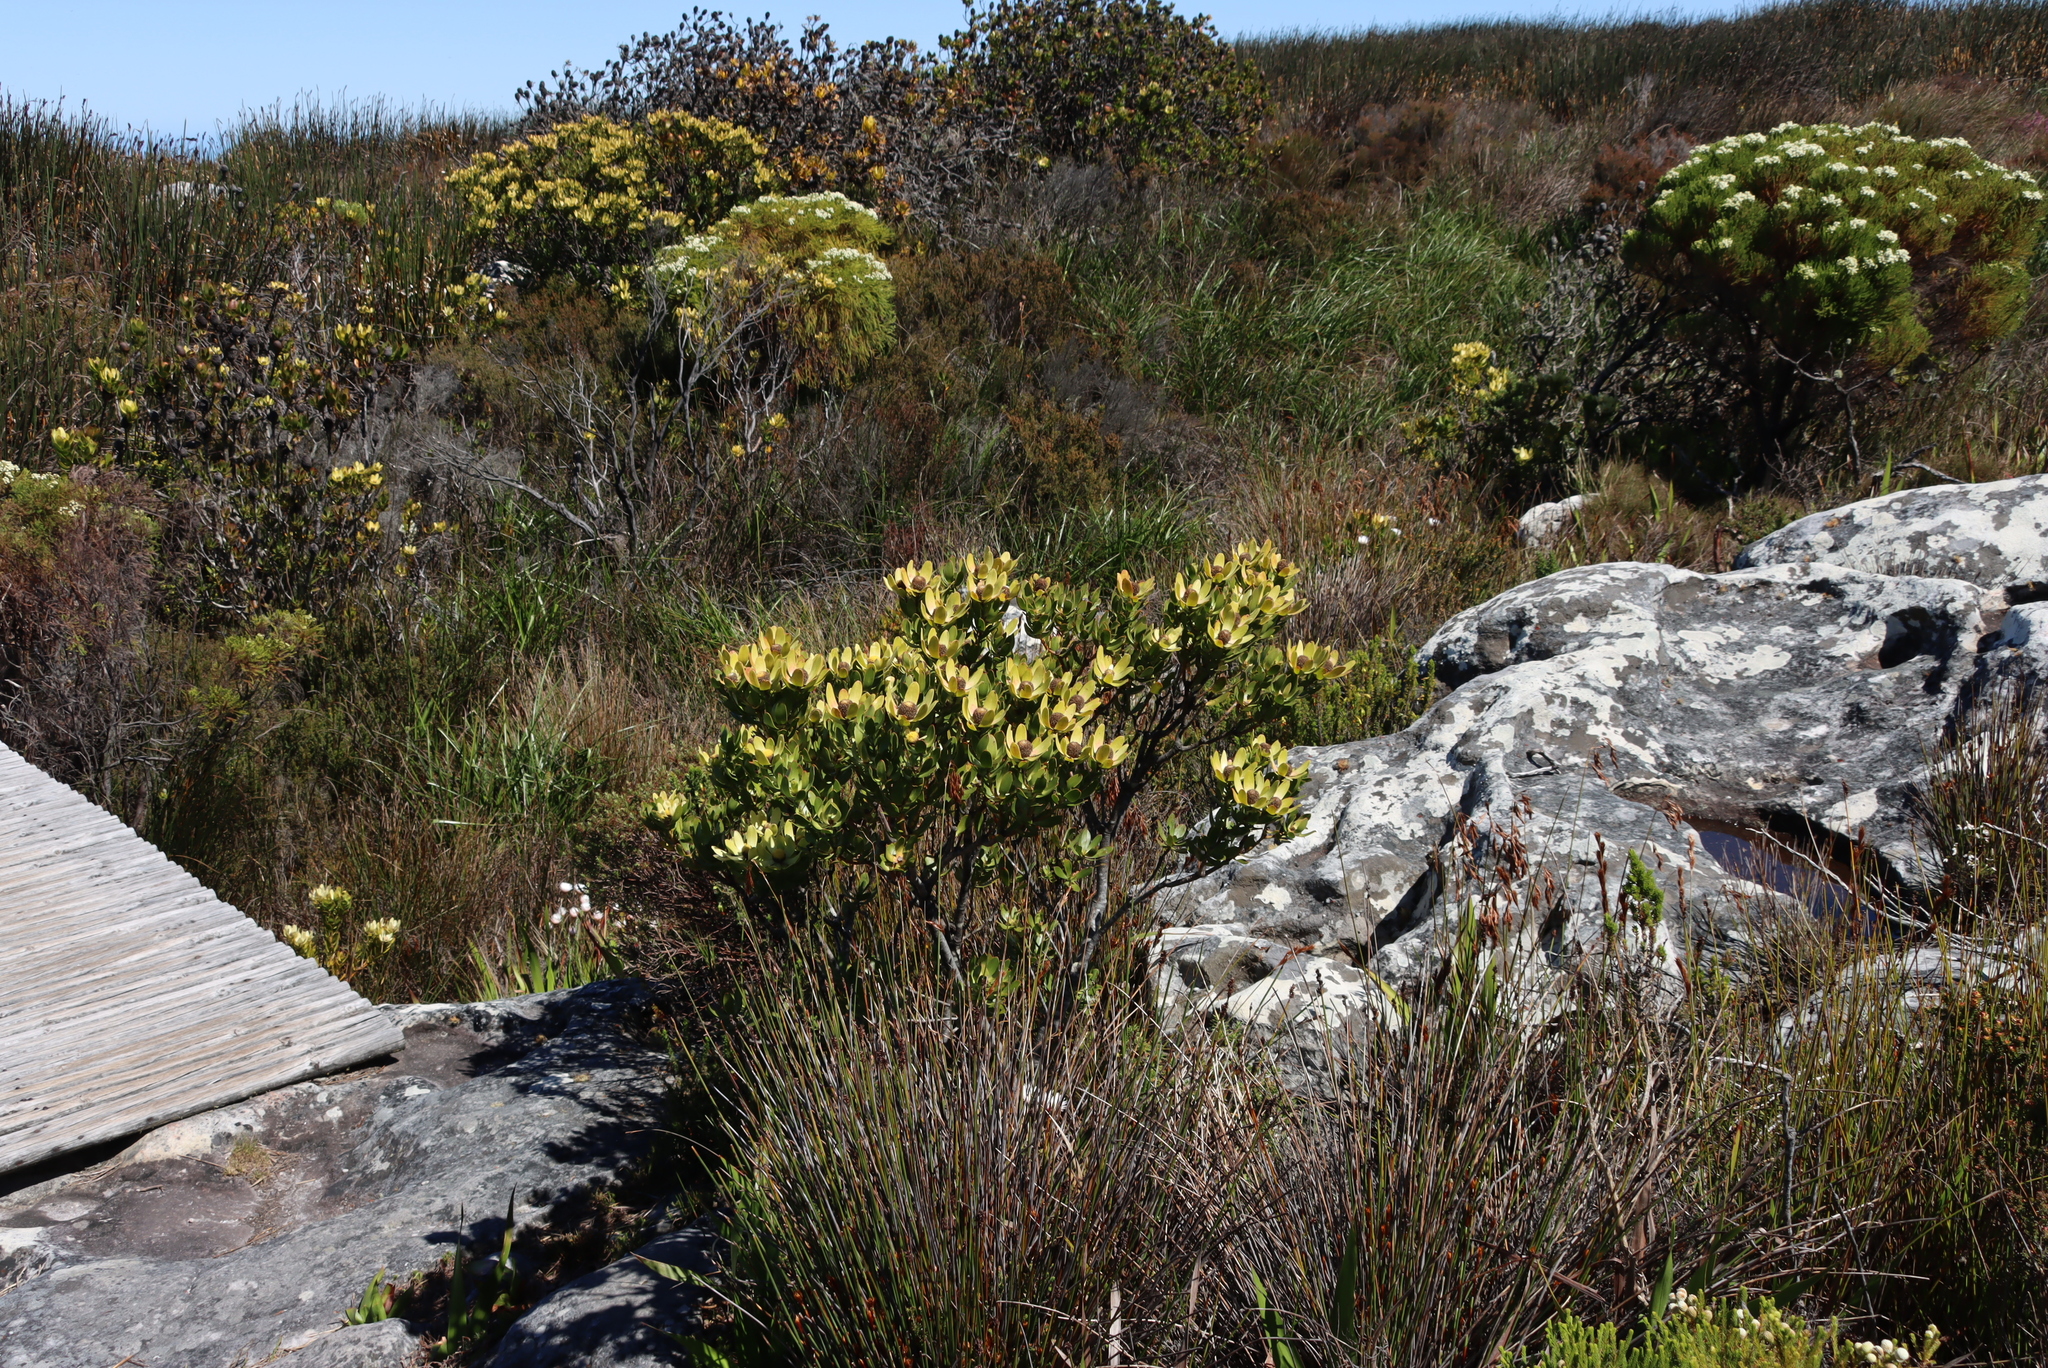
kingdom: Plantae
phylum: Tracheophyta
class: Magnoliopsida
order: Proteales
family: Proteaceae
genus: Leucadendron
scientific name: Leucadendron strobilinum
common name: Mountain rose
